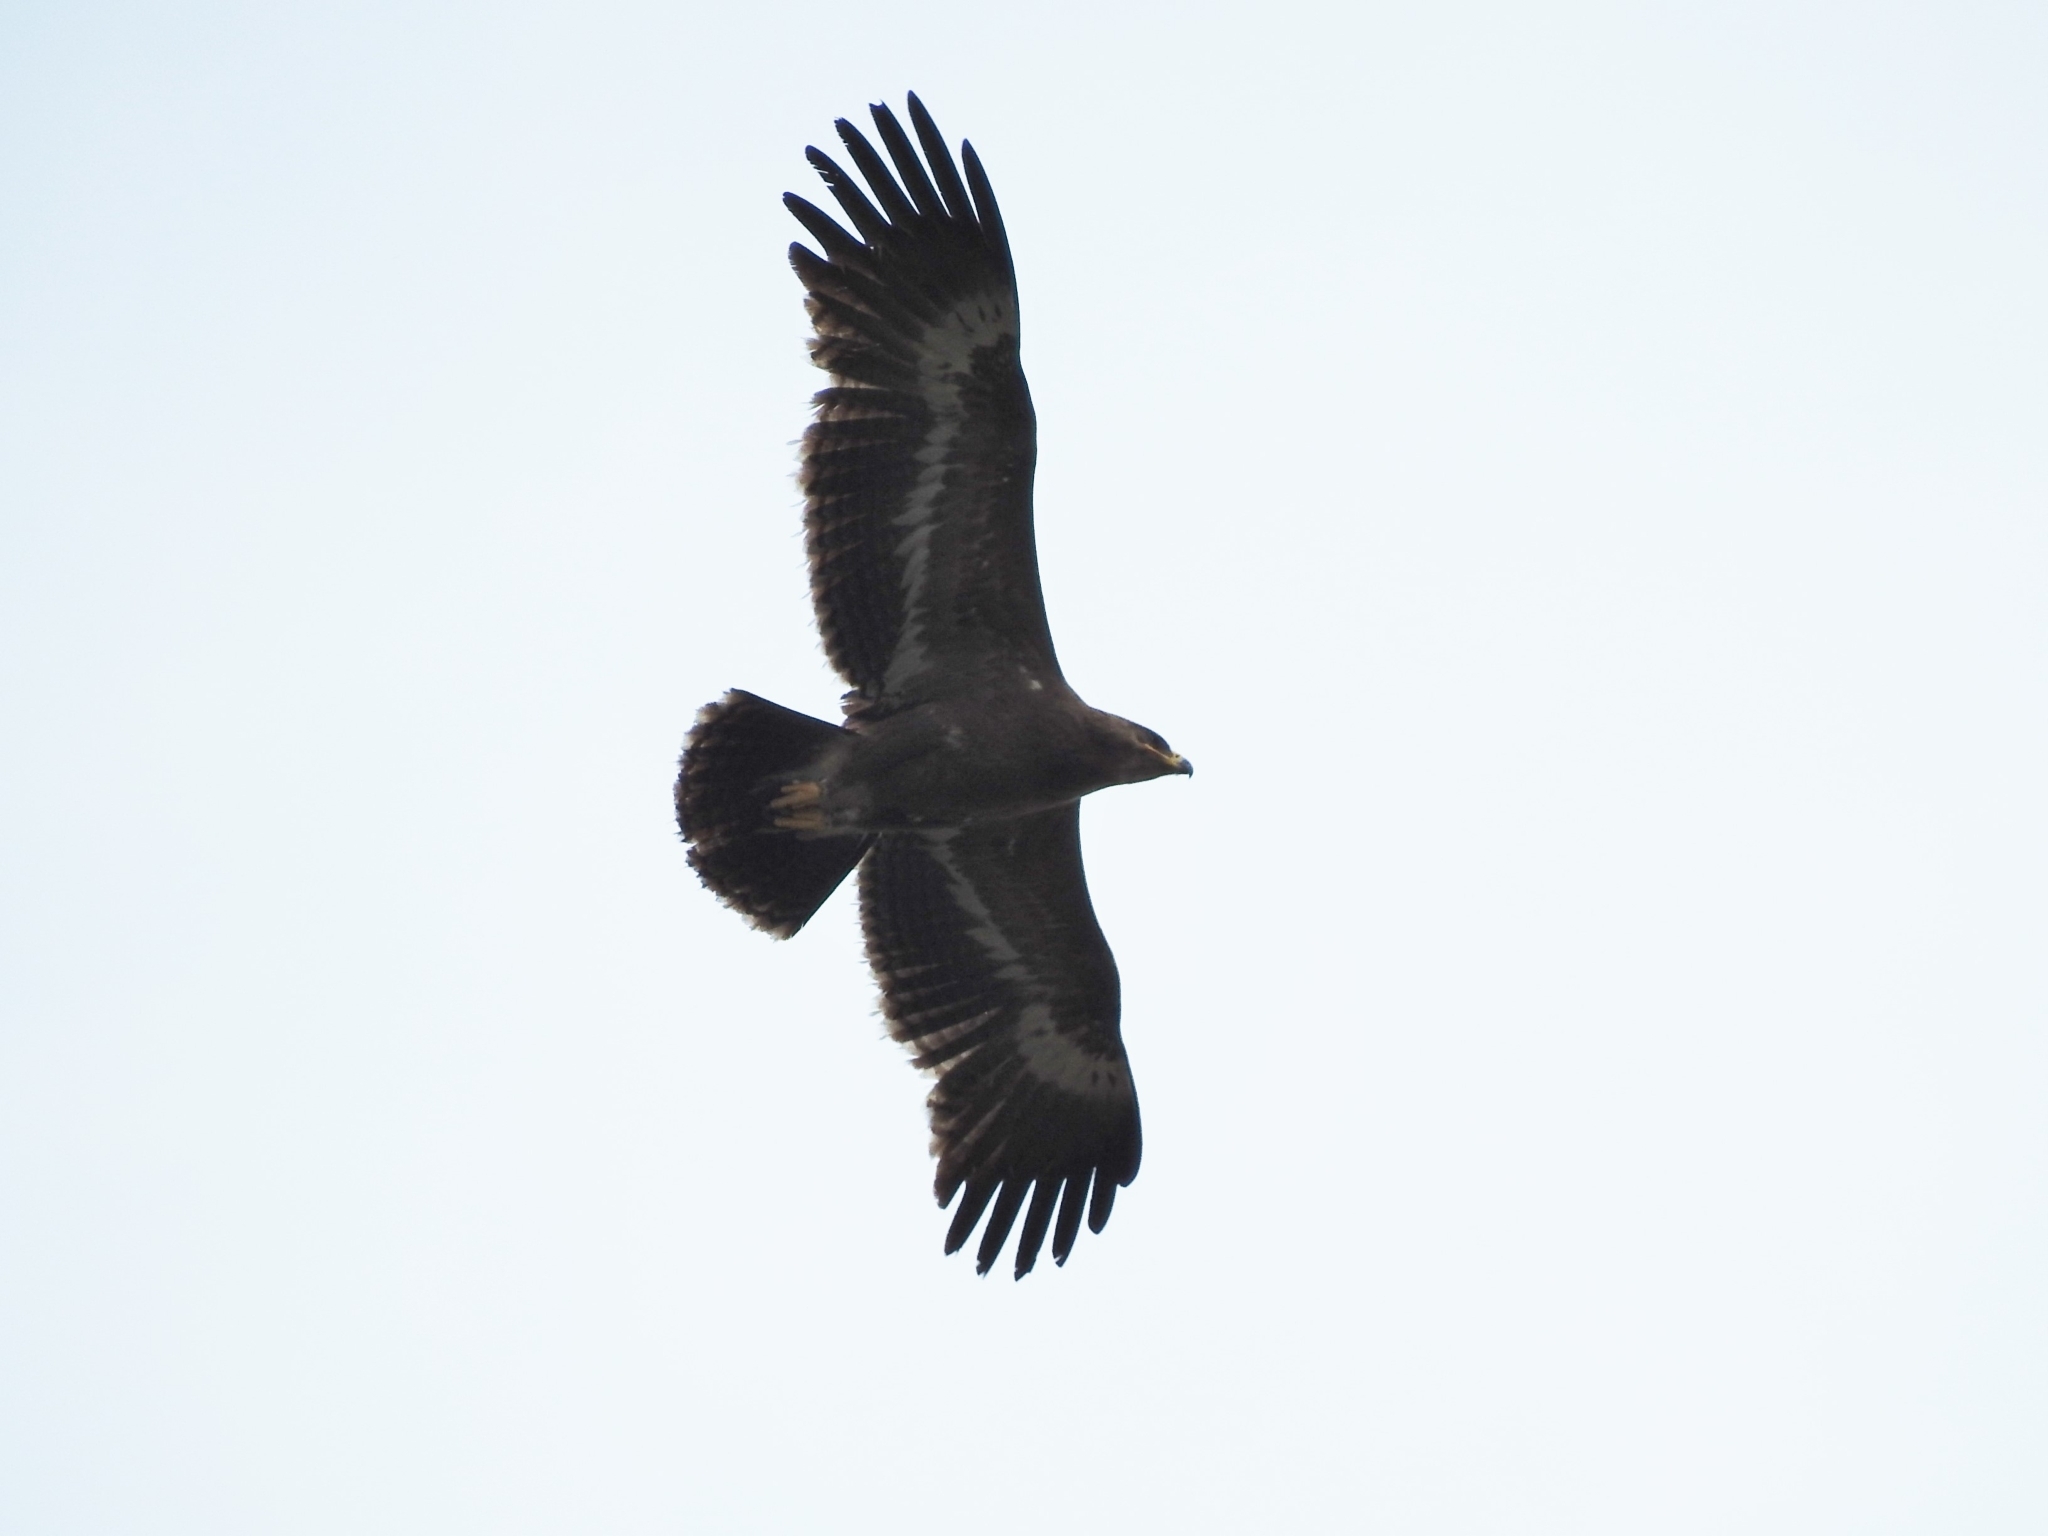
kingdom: Animalia
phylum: Chordata
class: Aves
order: Accipitriformes
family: Accipitridae
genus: Aquila
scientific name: Aquila nipalensis
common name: Steppe eagle
